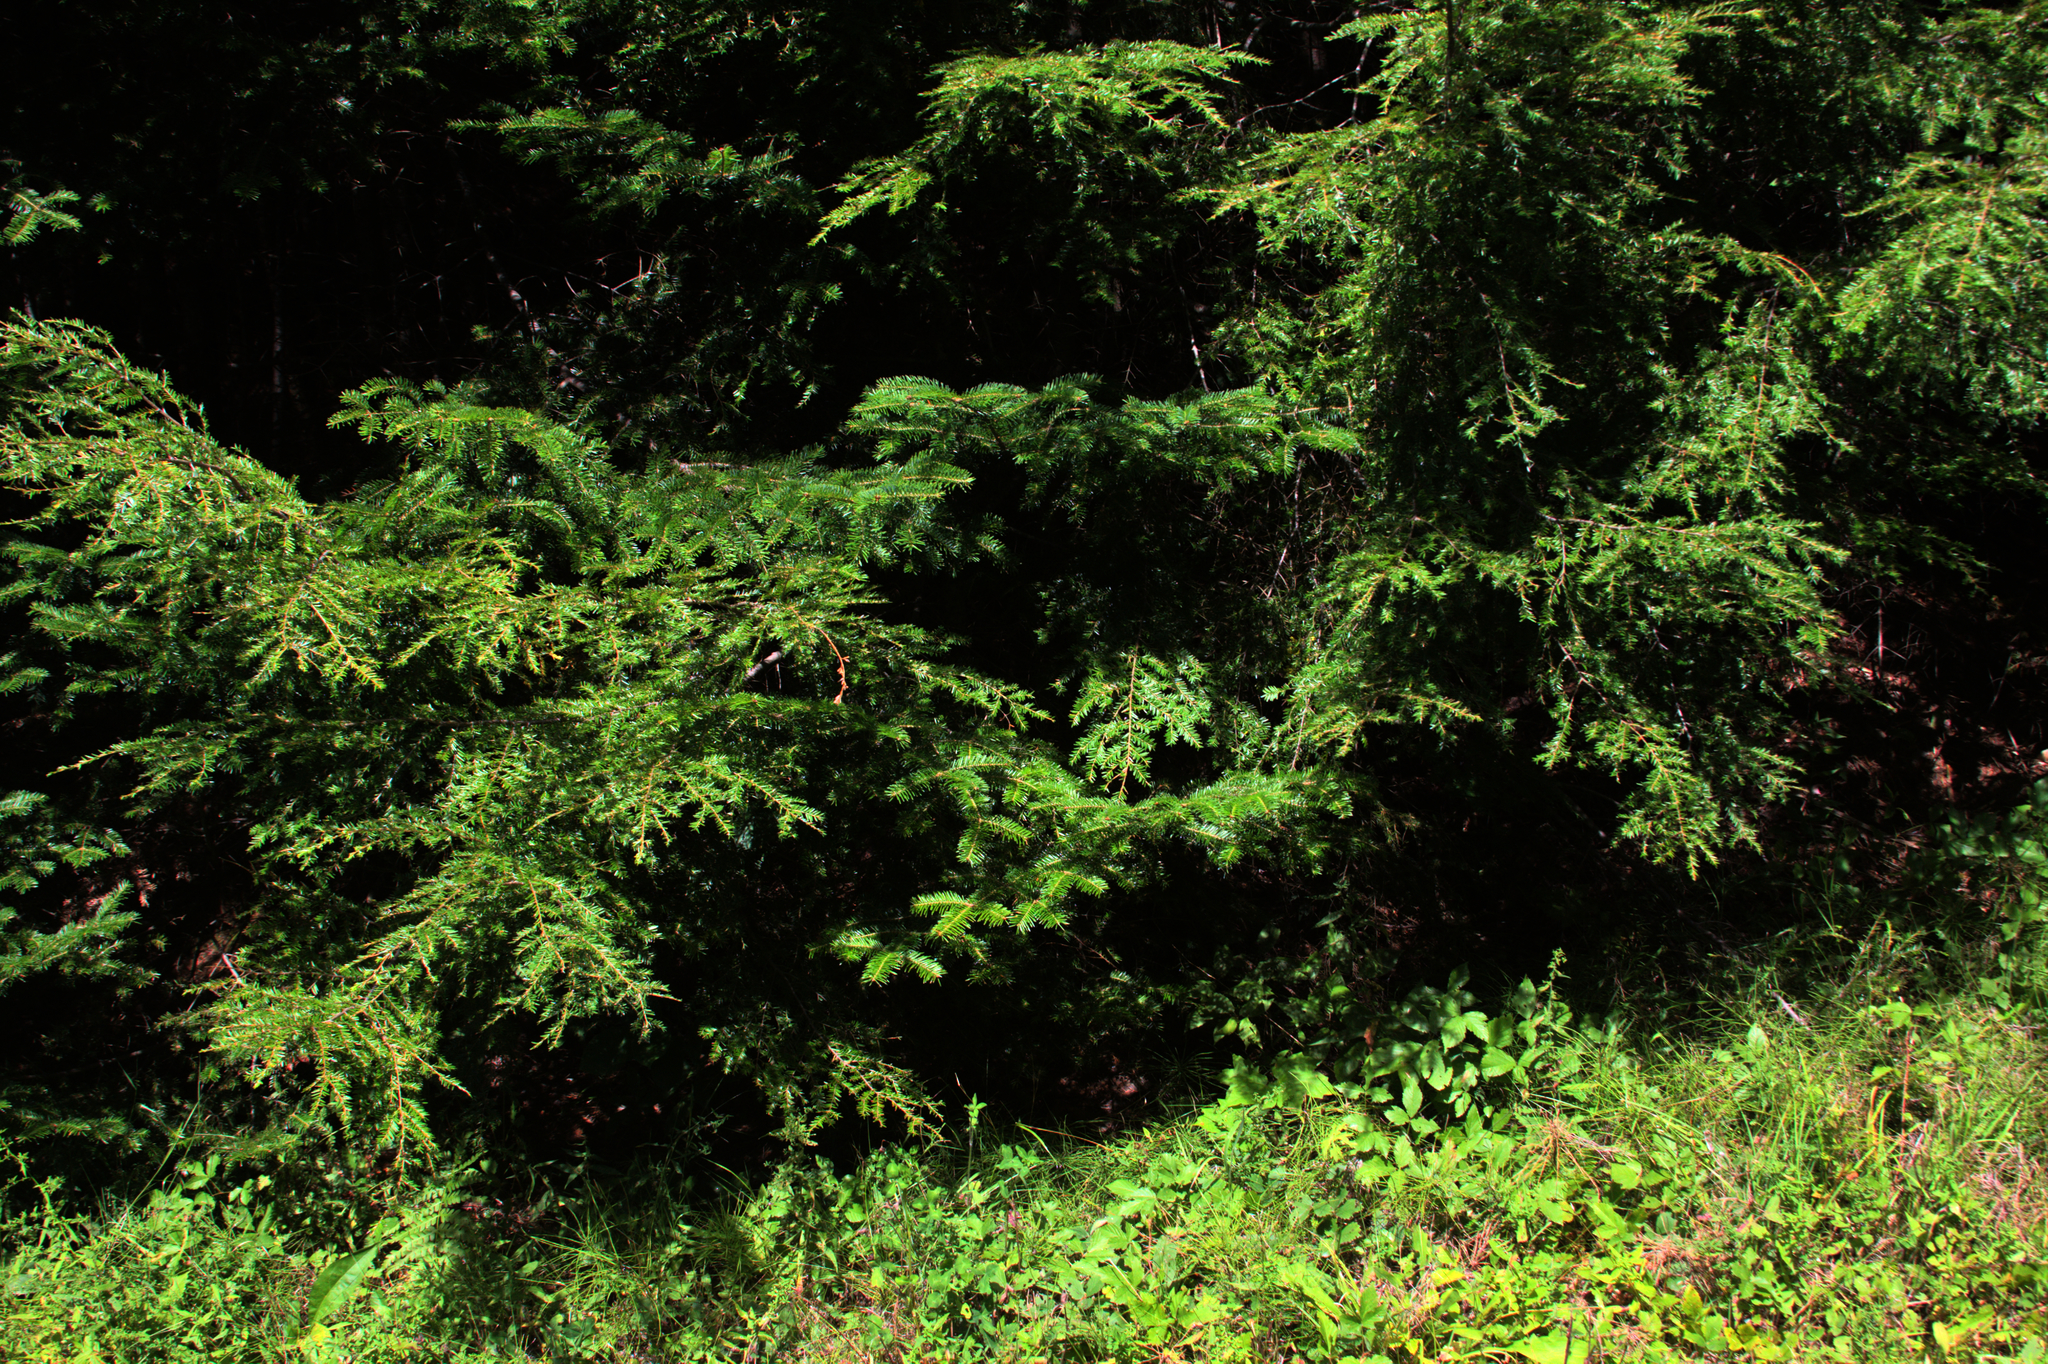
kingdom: Plantae
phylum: Tracheophyta
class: Pinopsida
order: Pinales
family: Pinaceae
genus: Abies
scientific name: Abies balsamea
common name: Balsam fir
